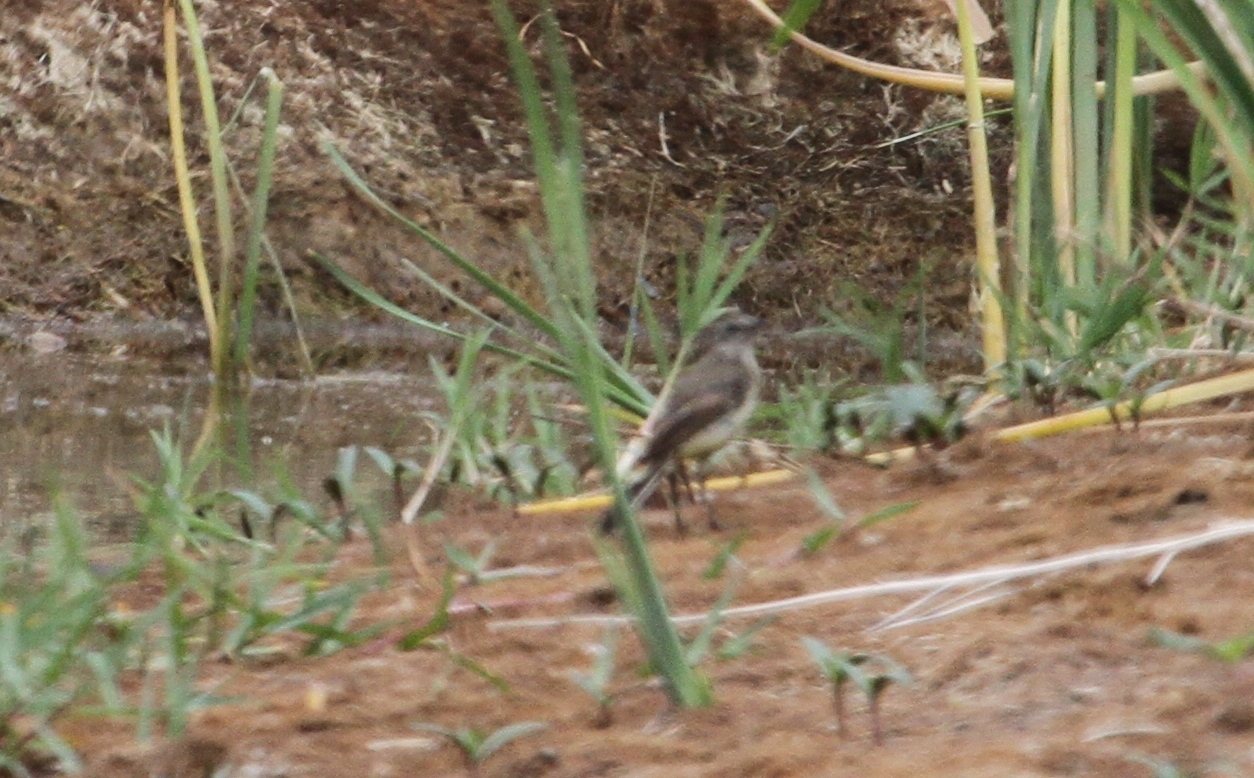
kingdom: Animalia
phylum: Chordata
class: Aves
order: Passeriformes
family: Motacillidae
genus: Motacilla
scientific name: Motacilla flava
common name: Western yellow wagtail
